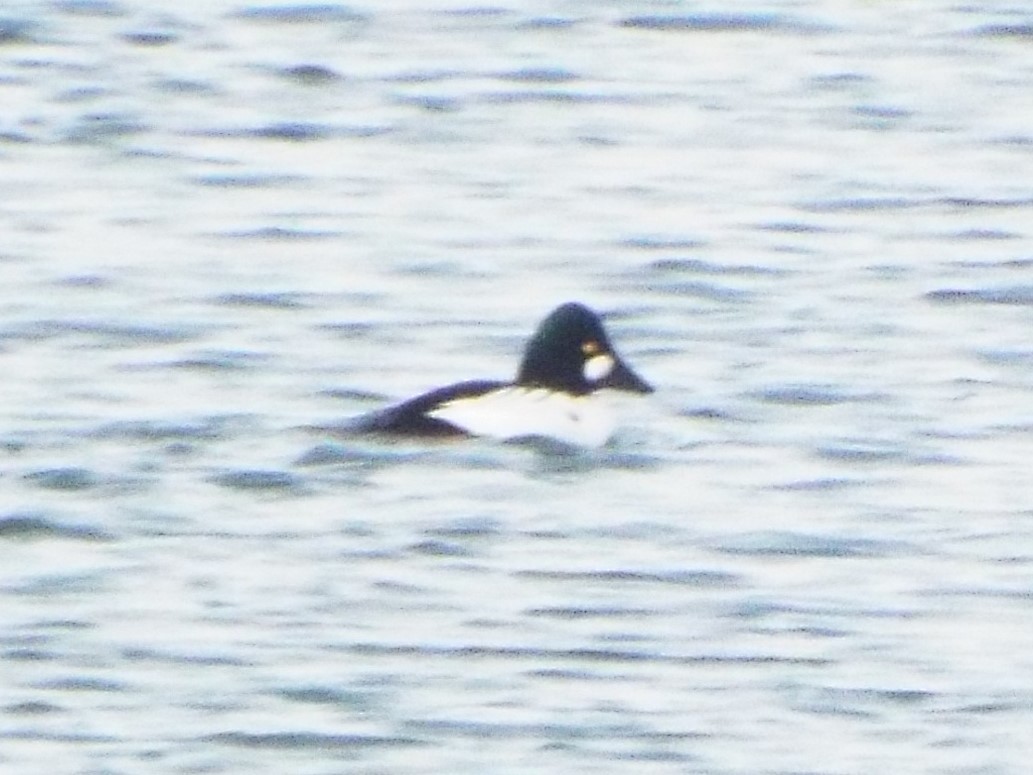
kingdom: Animalia
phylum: Chordata
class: Aves
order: Anseriformes
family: Anatidae
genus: Bucephala
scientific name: Bucephala clangula
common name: Common goldeneye
